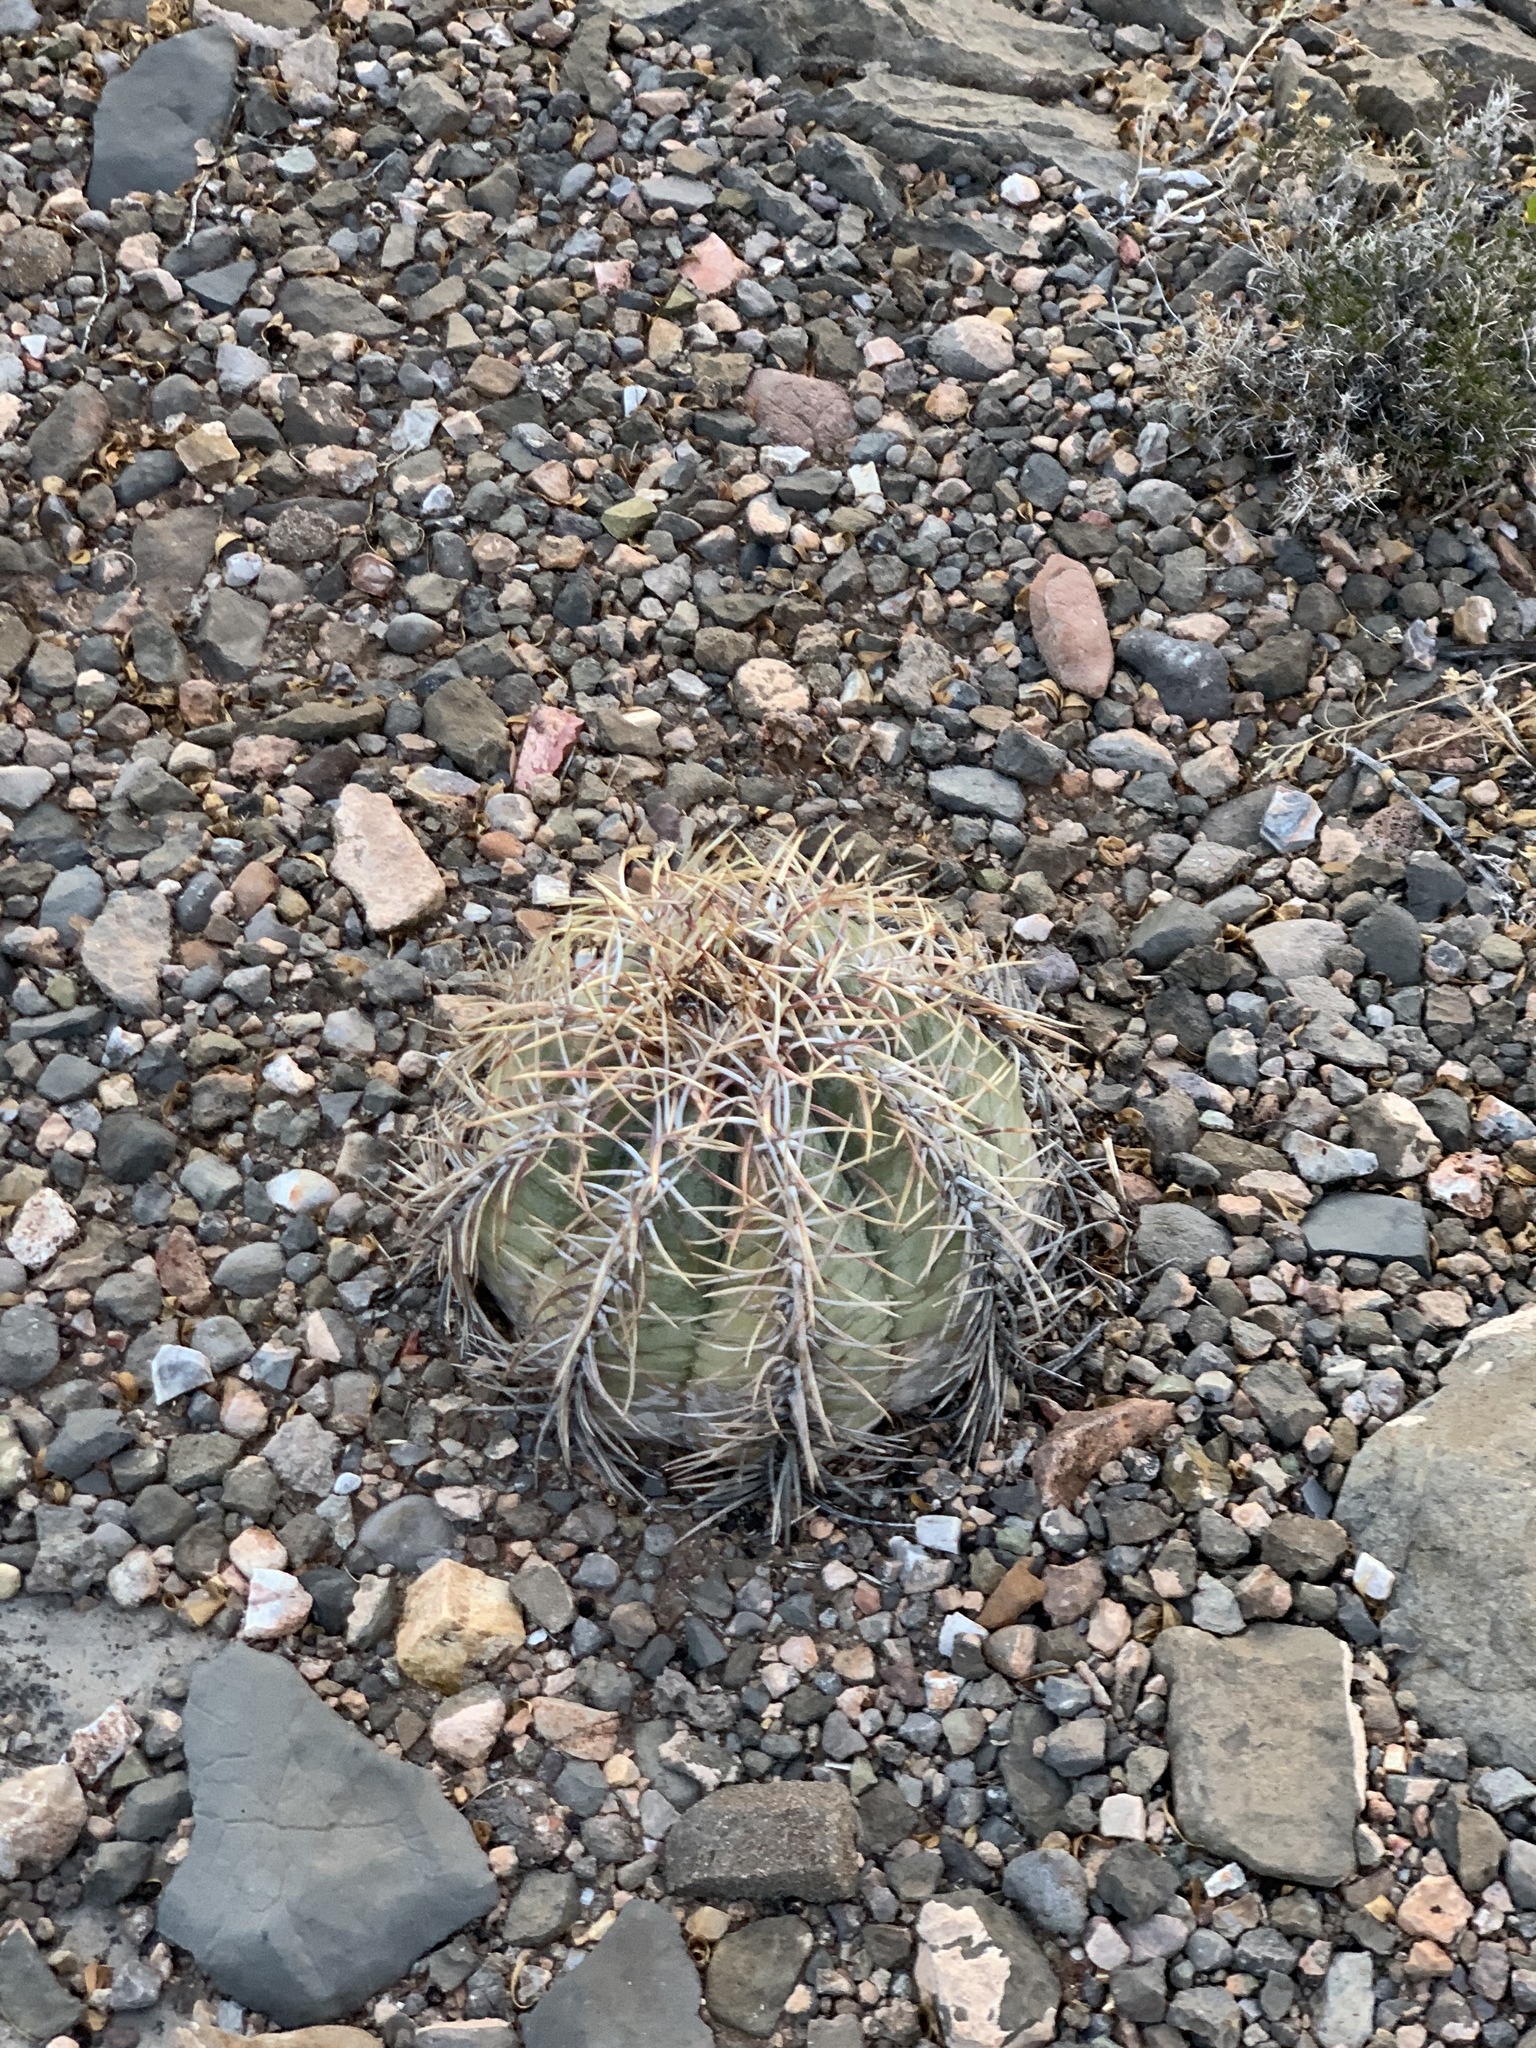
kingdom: Plantae
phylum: Tracheophyta
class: Magnoliopsida
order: Caryophyllales
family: Cactaceae
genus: Echinocactus
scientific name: Echinocactus horizonthalonius
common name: Devilshead
